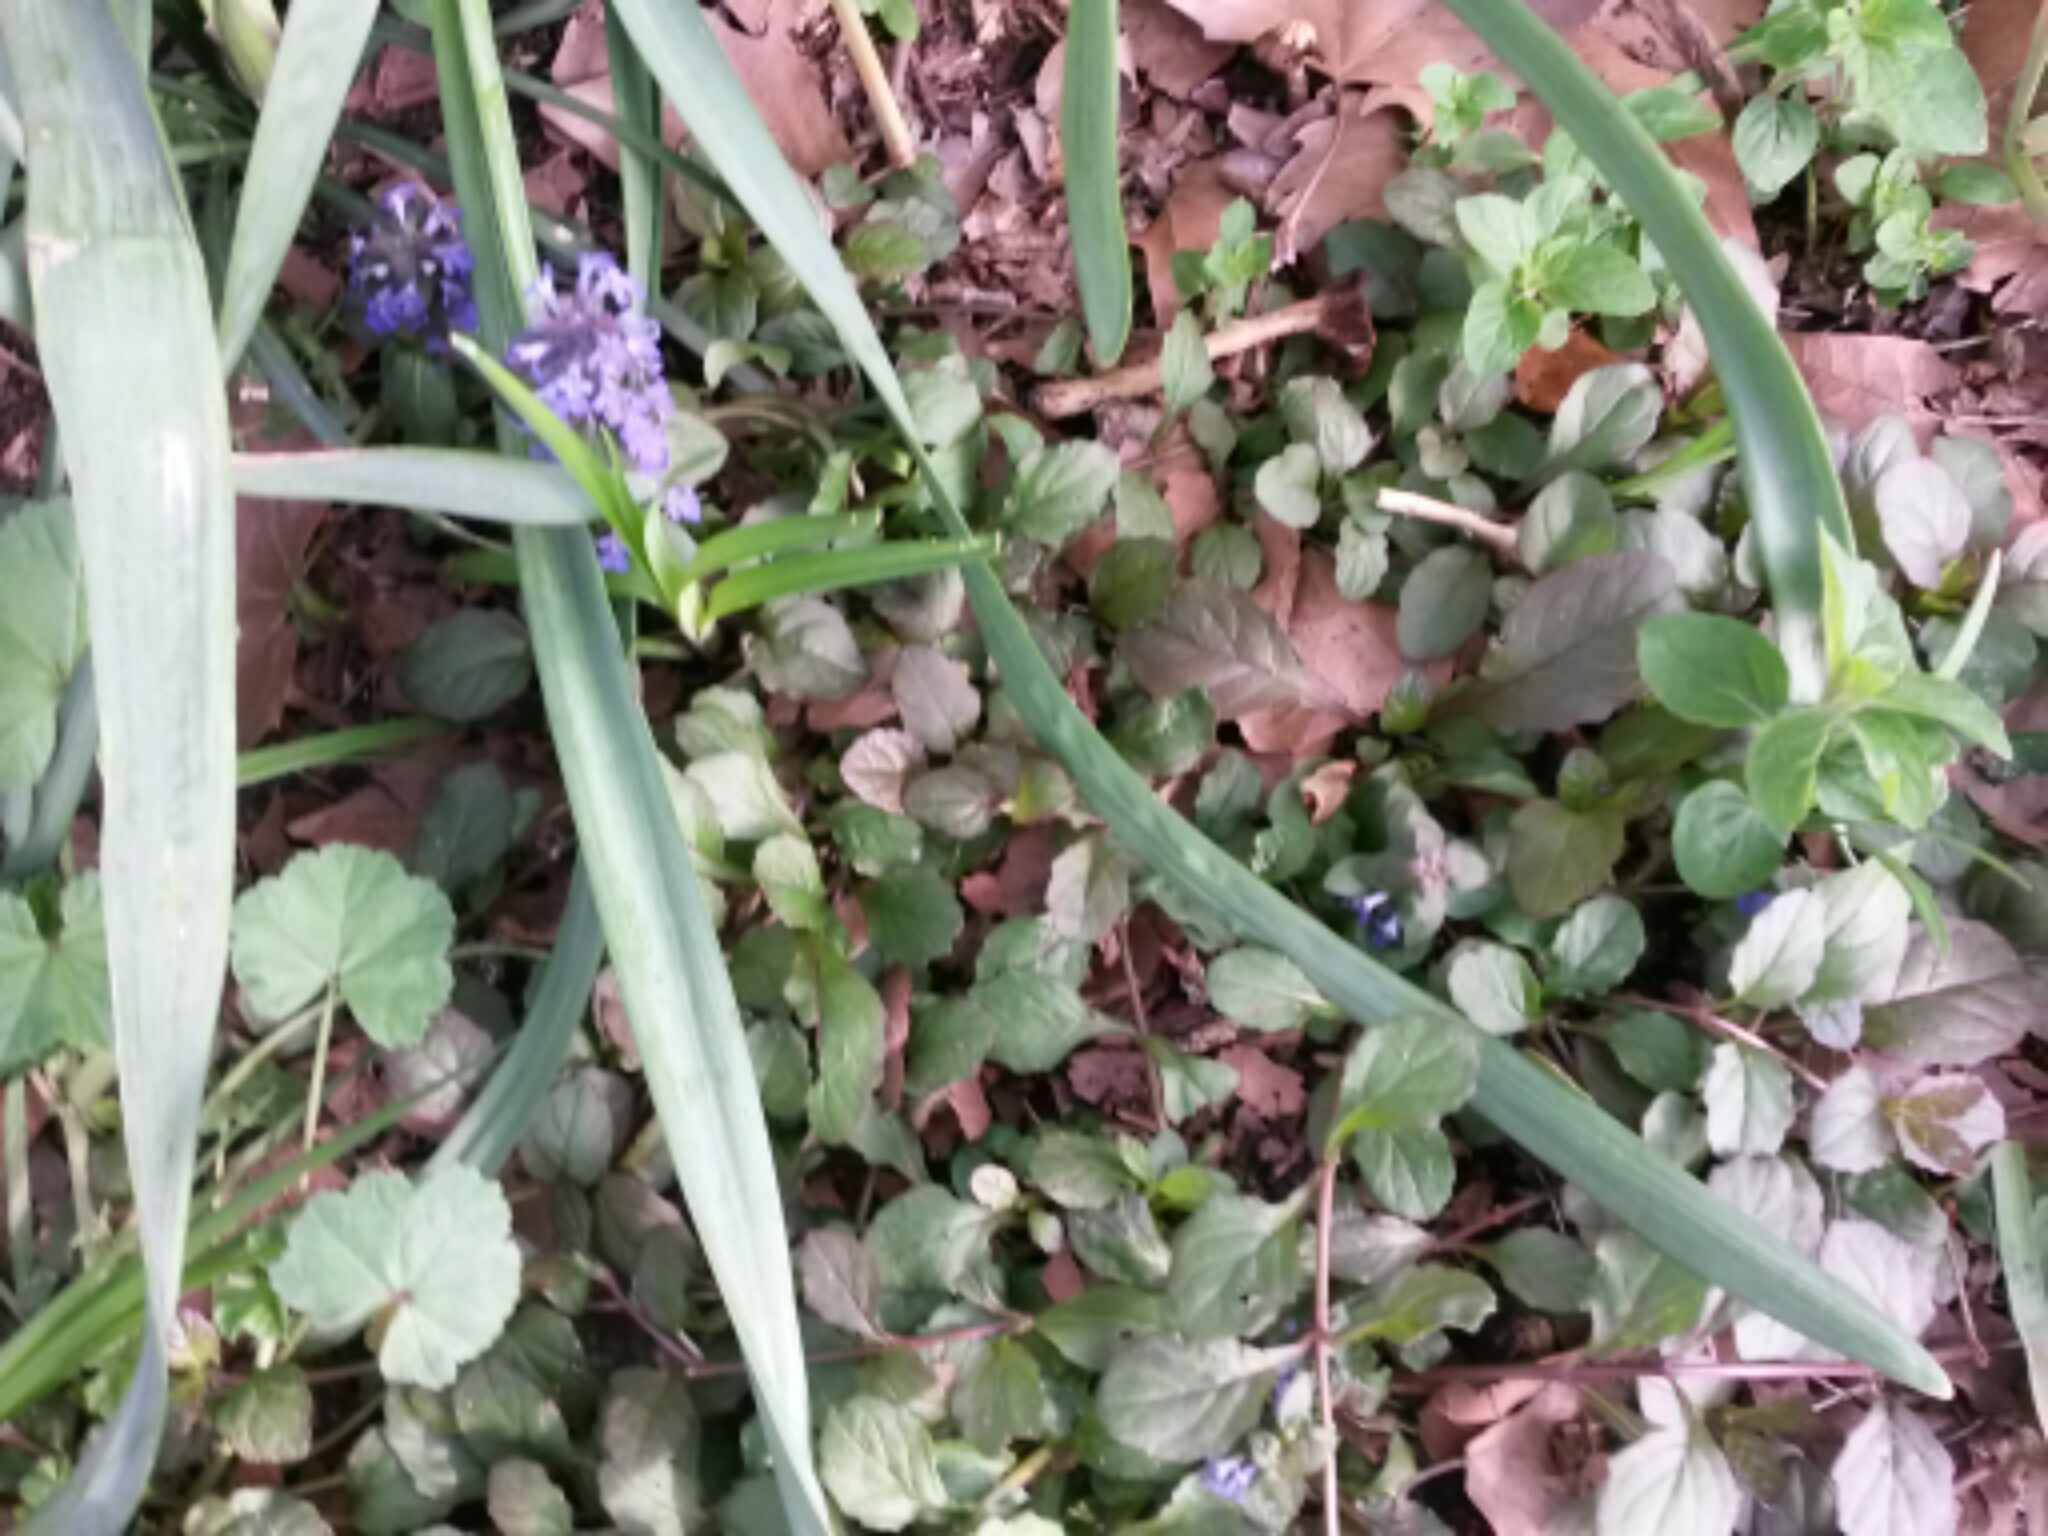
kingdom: Plantae
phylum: Tracheophyta
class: Magnoliopsida
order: Lamiales
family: Lamiaceae
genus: Ajuga
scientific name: Ajuga reptans
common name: Bugle
